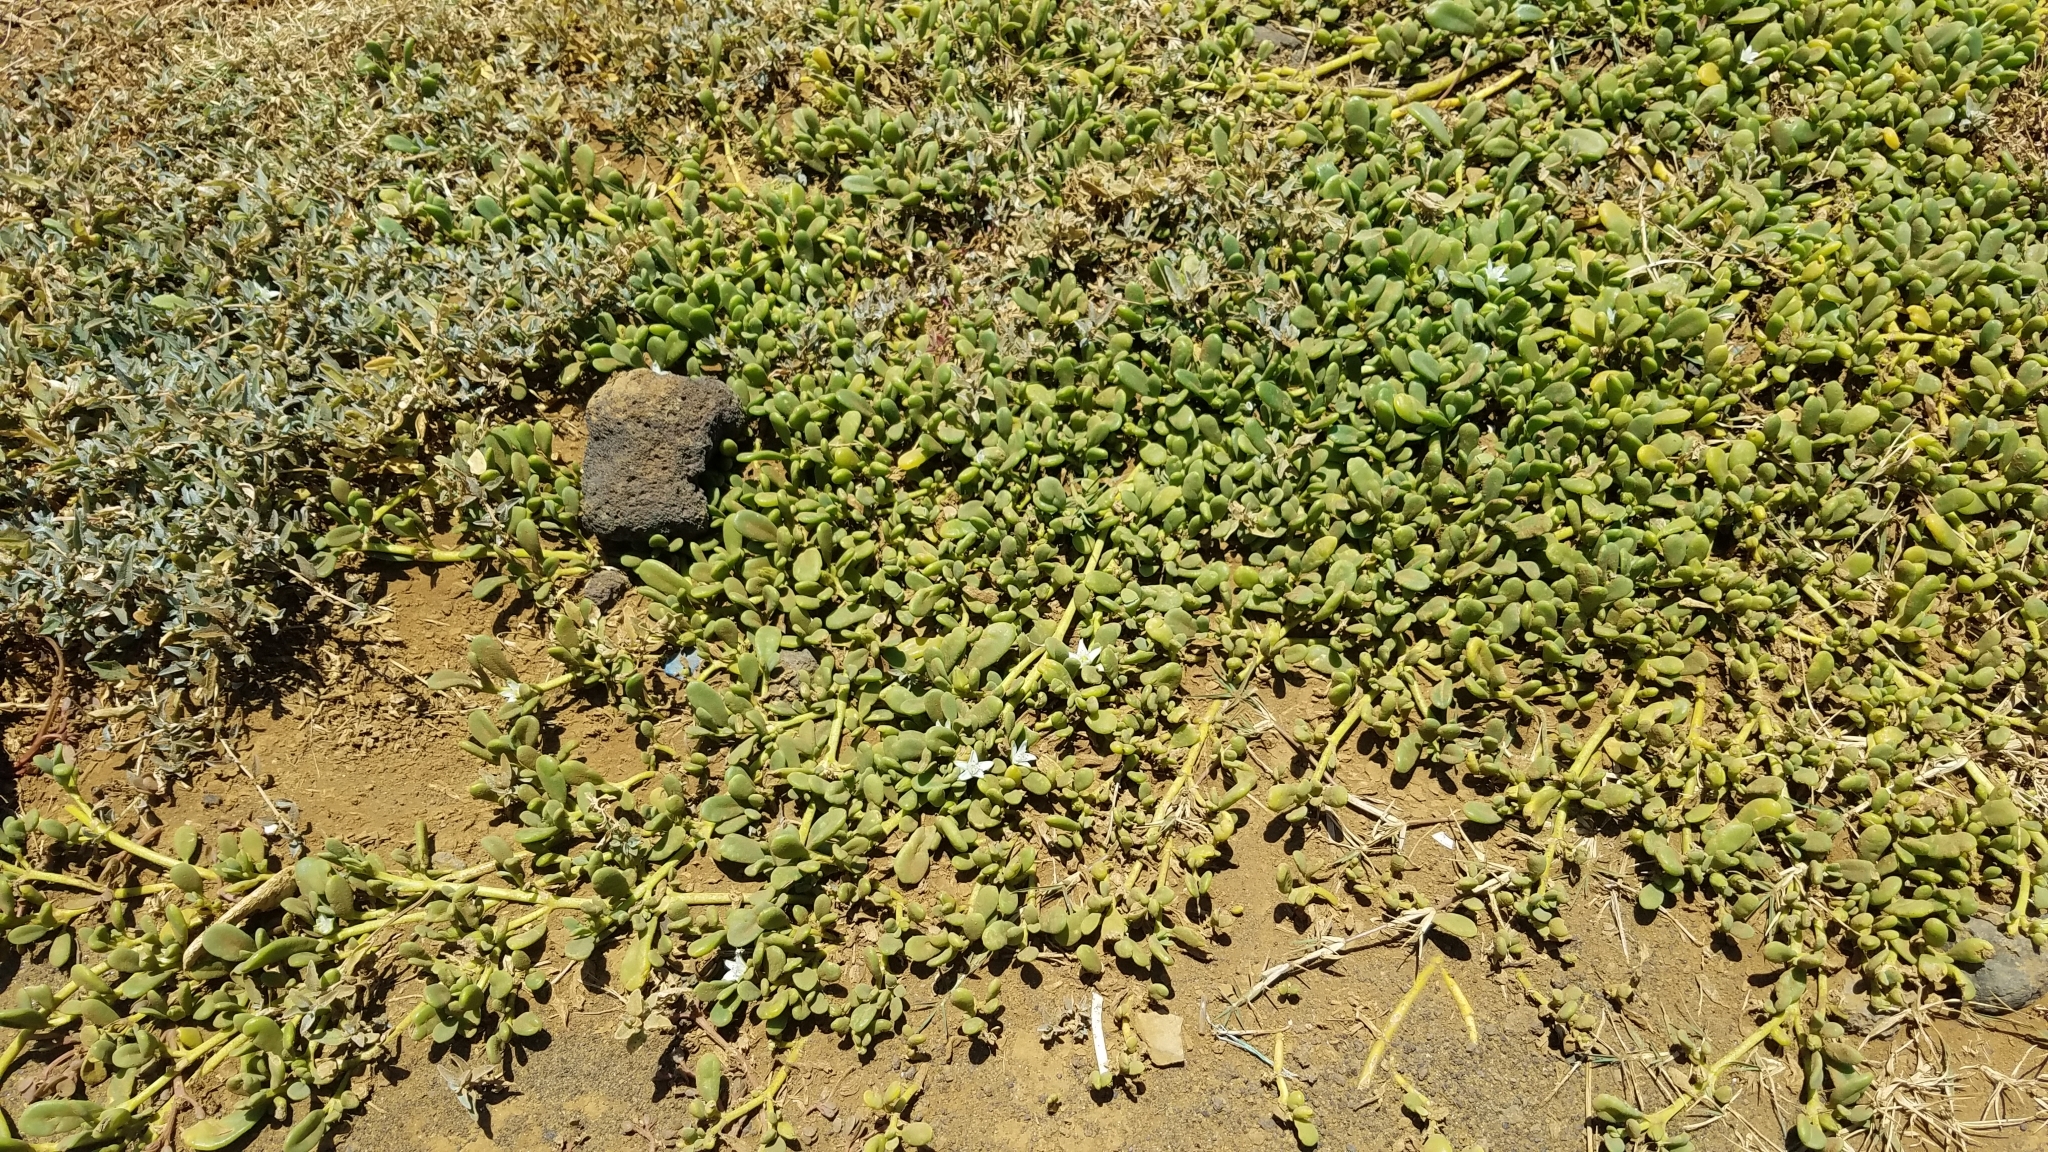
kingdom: Plantae
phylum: Tracheophyta
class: Magnoliopsida
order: Caryophyllales
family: Aizoaceae
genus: Sesuvium
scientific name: Sesuvium portulacastrum
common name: Sea-purslane
